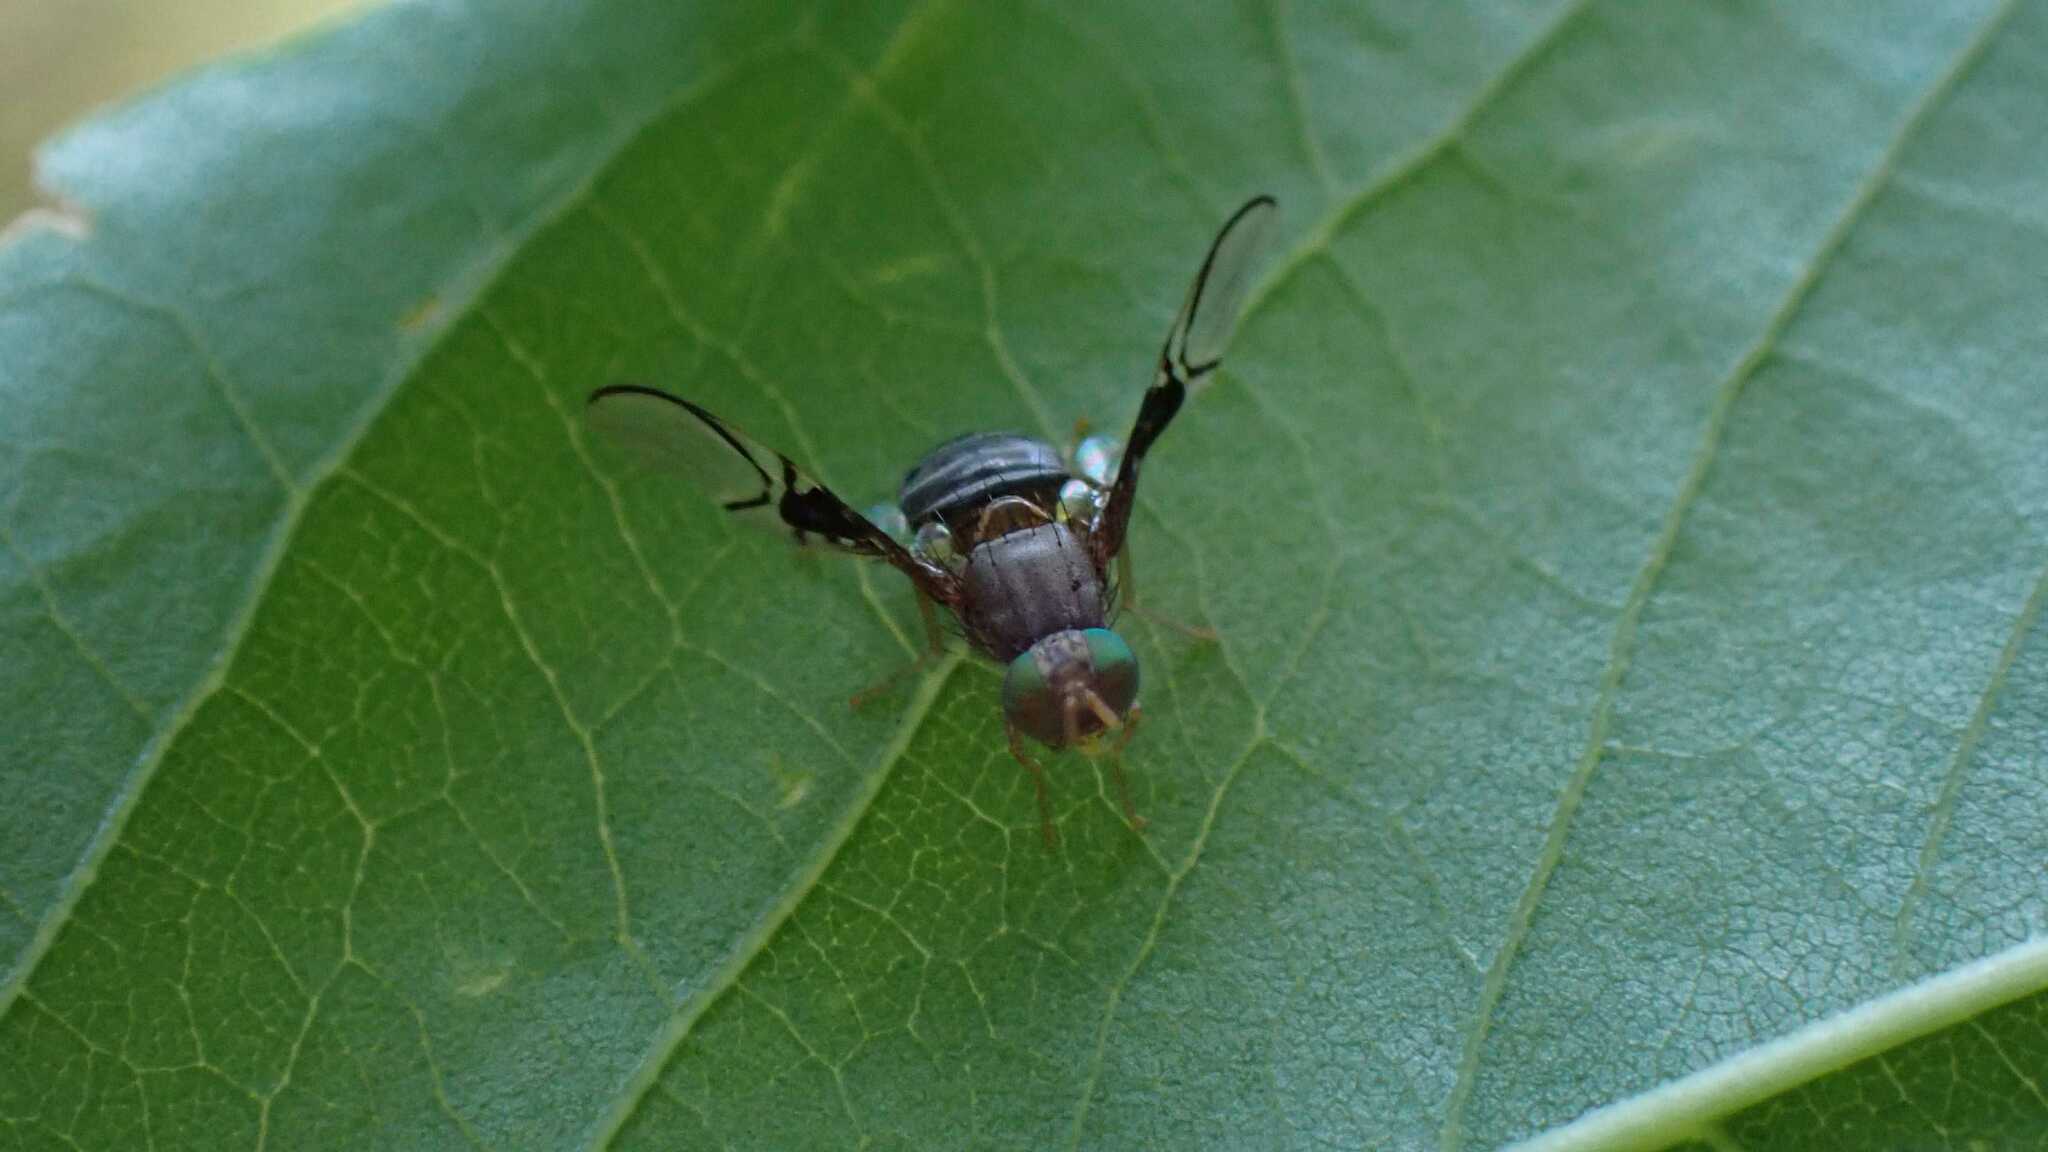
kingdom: Animalia
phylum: Arthropoda
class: Insecta
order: Diptera
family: Tephritidae
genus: Anomoia
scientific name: Anomoia purmunda
